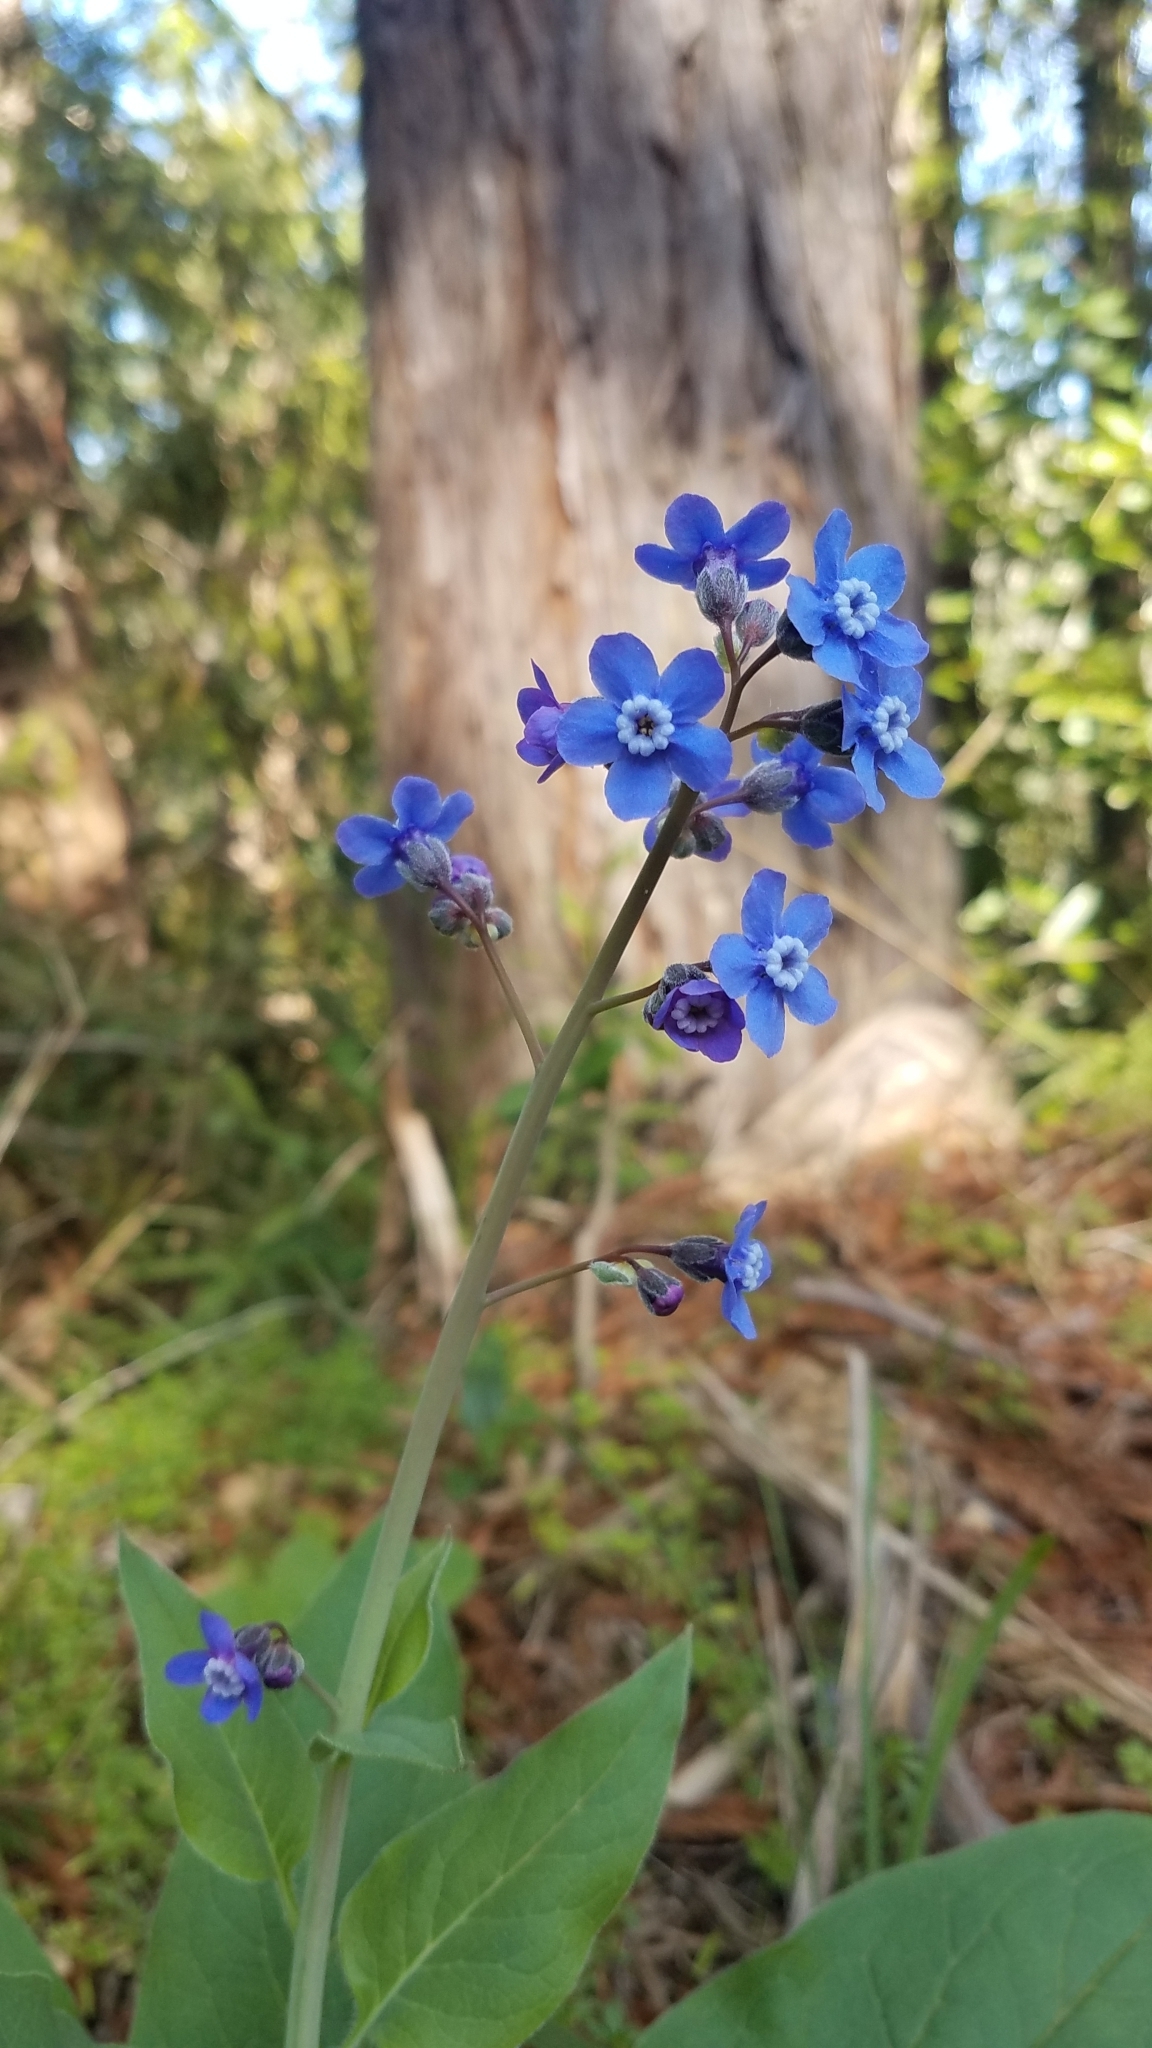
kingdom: Plantae
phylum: Tracheophyta
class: Magnoliopsida
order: Boraginales
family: Boraginaceae
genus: Adelinia
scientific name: Adelinia grande
